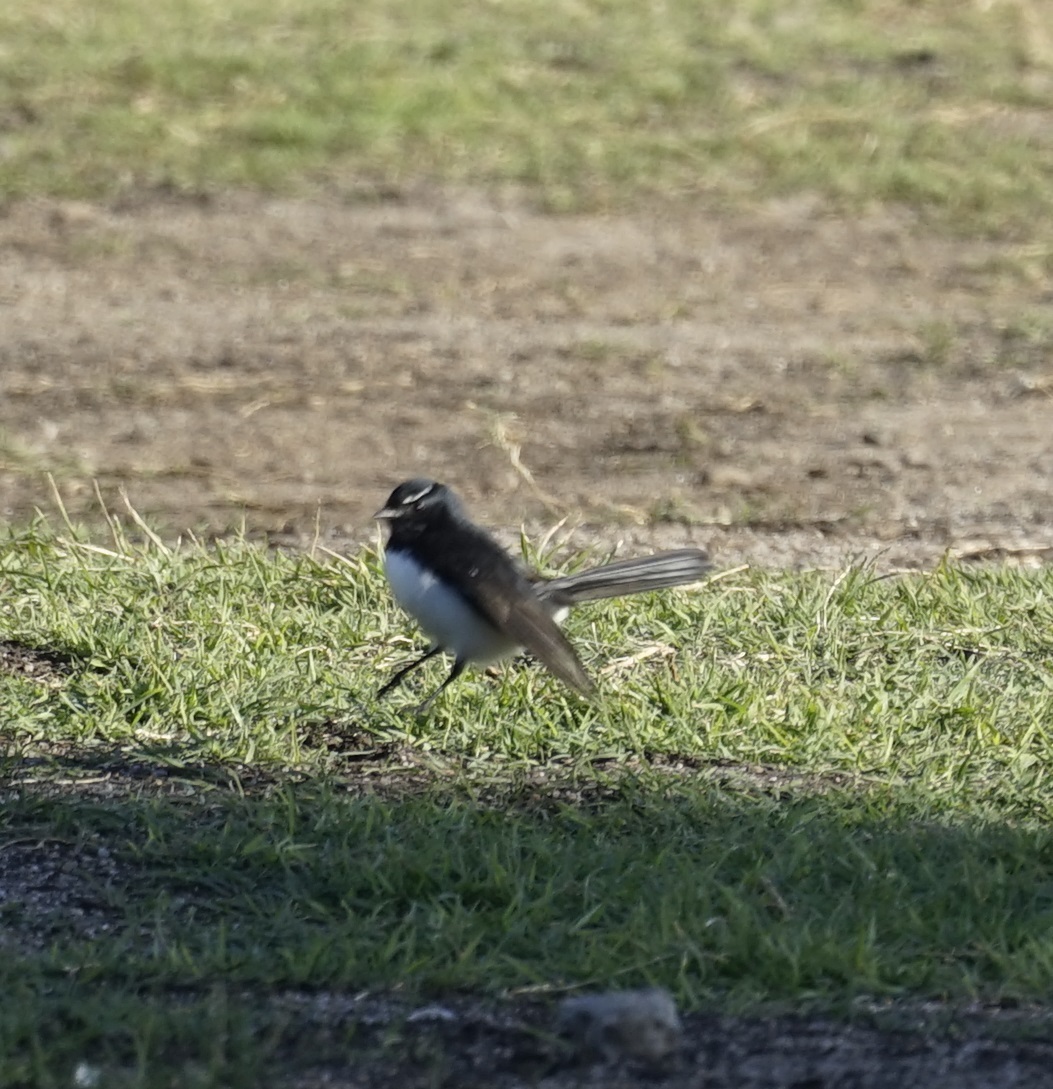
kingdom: Animalia
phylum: Chordata
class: Aves
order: Passeriformes
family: Rhipiduridae
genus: Rhipidura
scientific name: Rhipidura leucophrys
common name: Willie wagtail
